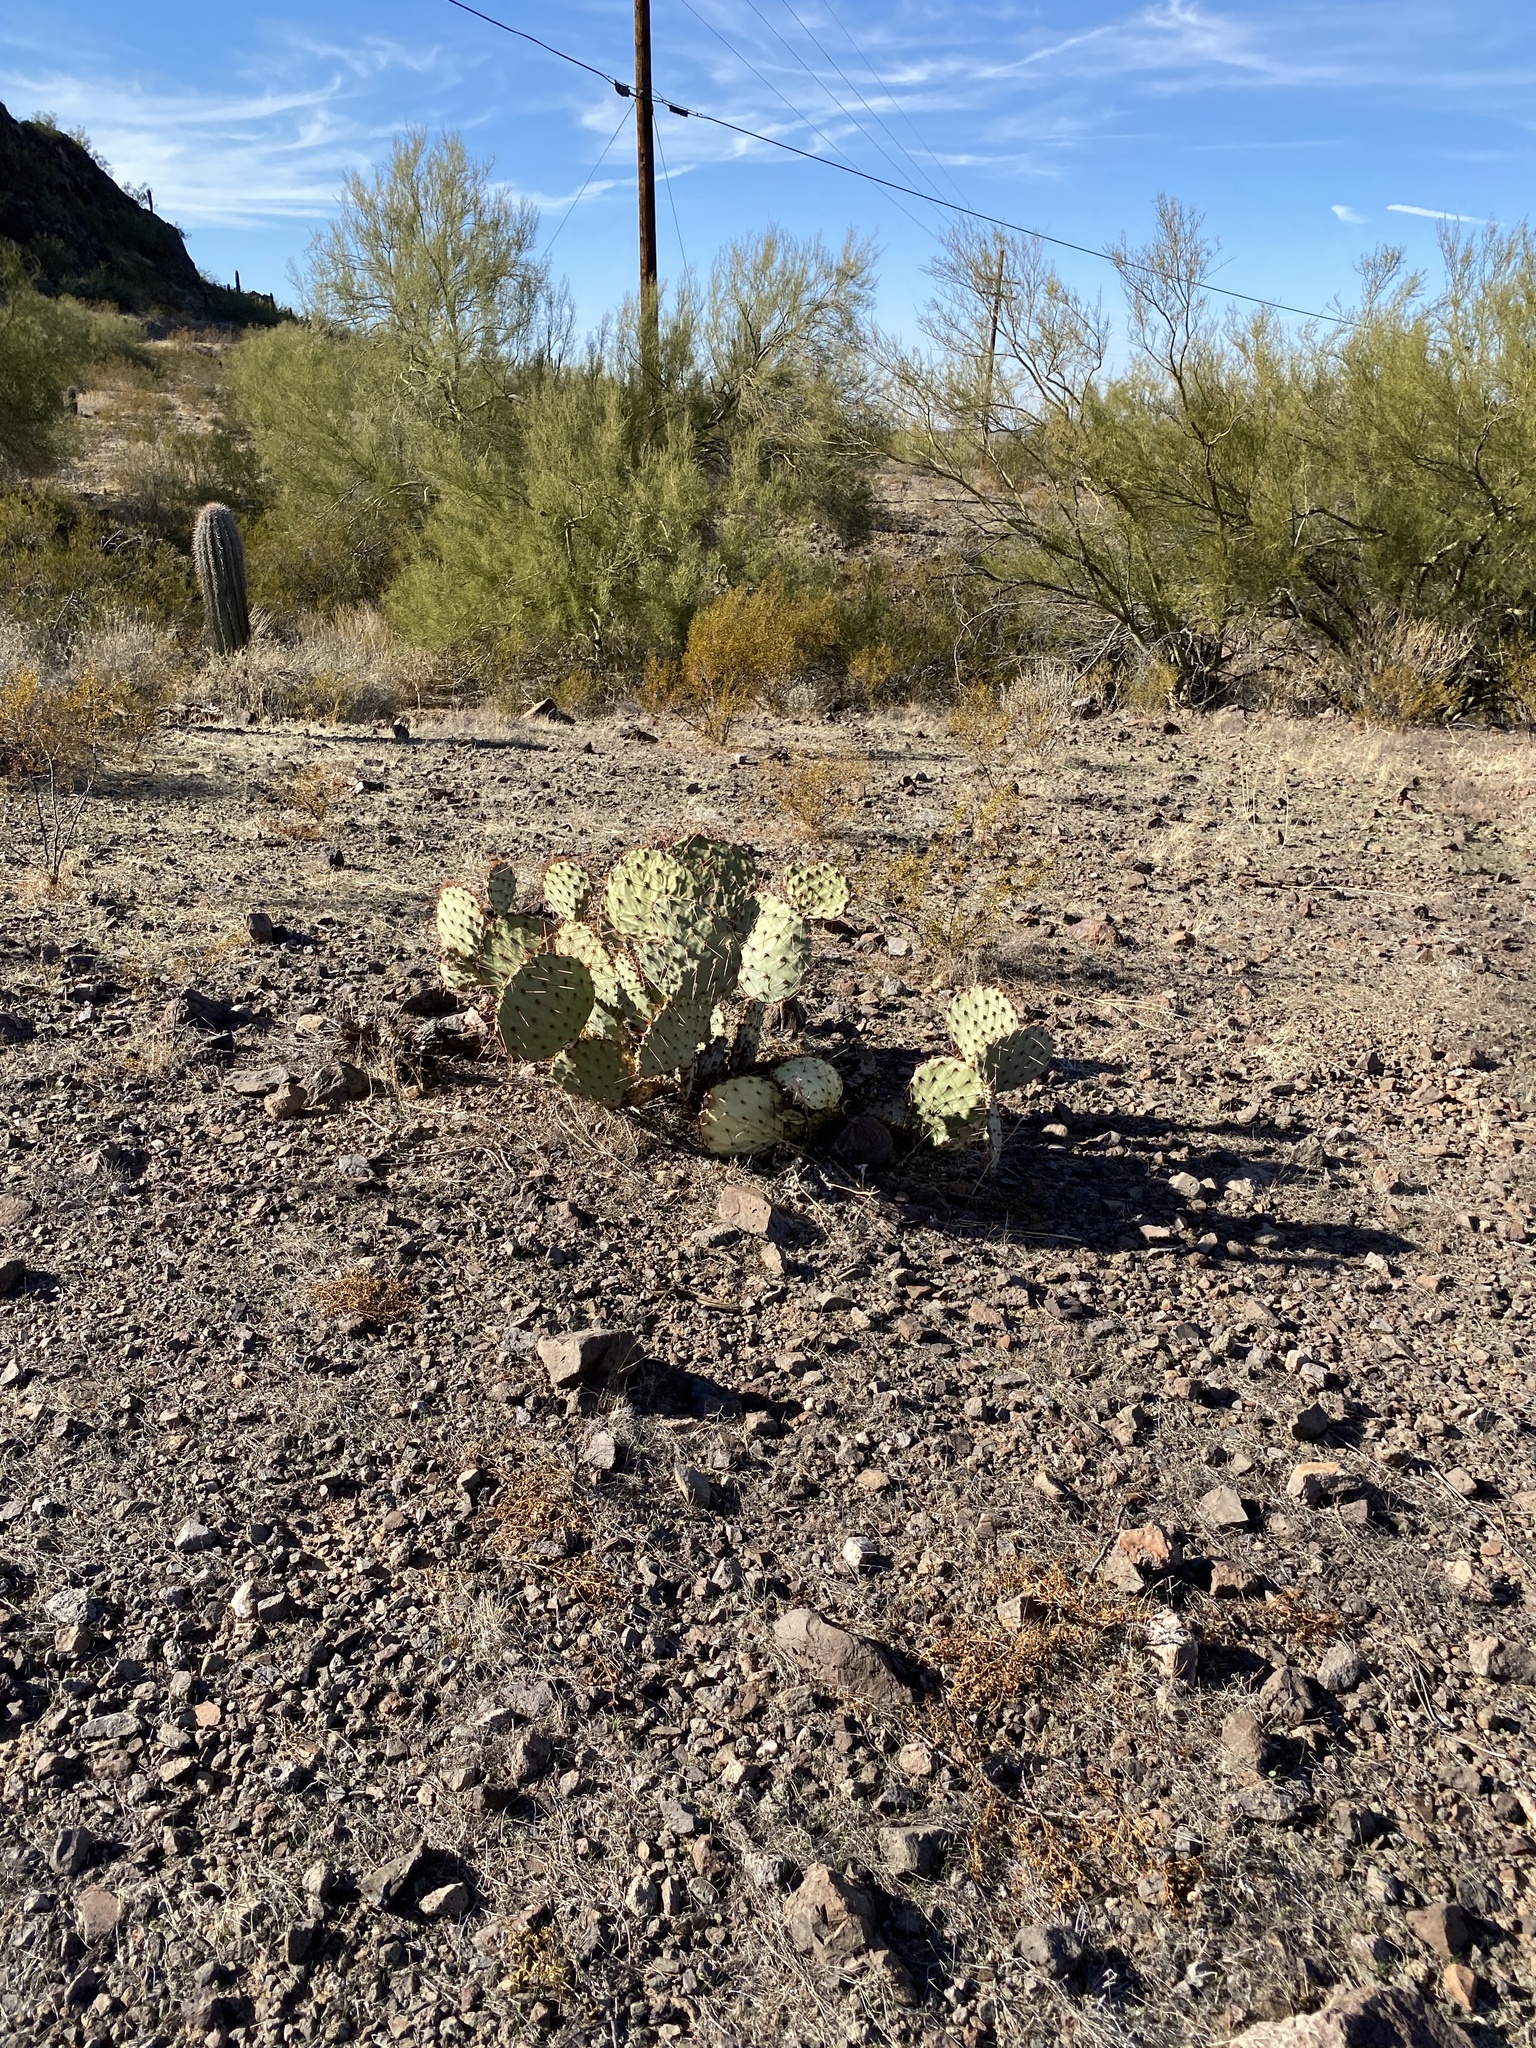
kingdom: Plantae
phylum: Tracheophyta
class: Magnoliopsida
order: Caryophyllales
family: Cactaceae
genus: Opuntia
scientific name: Opuntia engelmannii
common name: Cactus-apple
